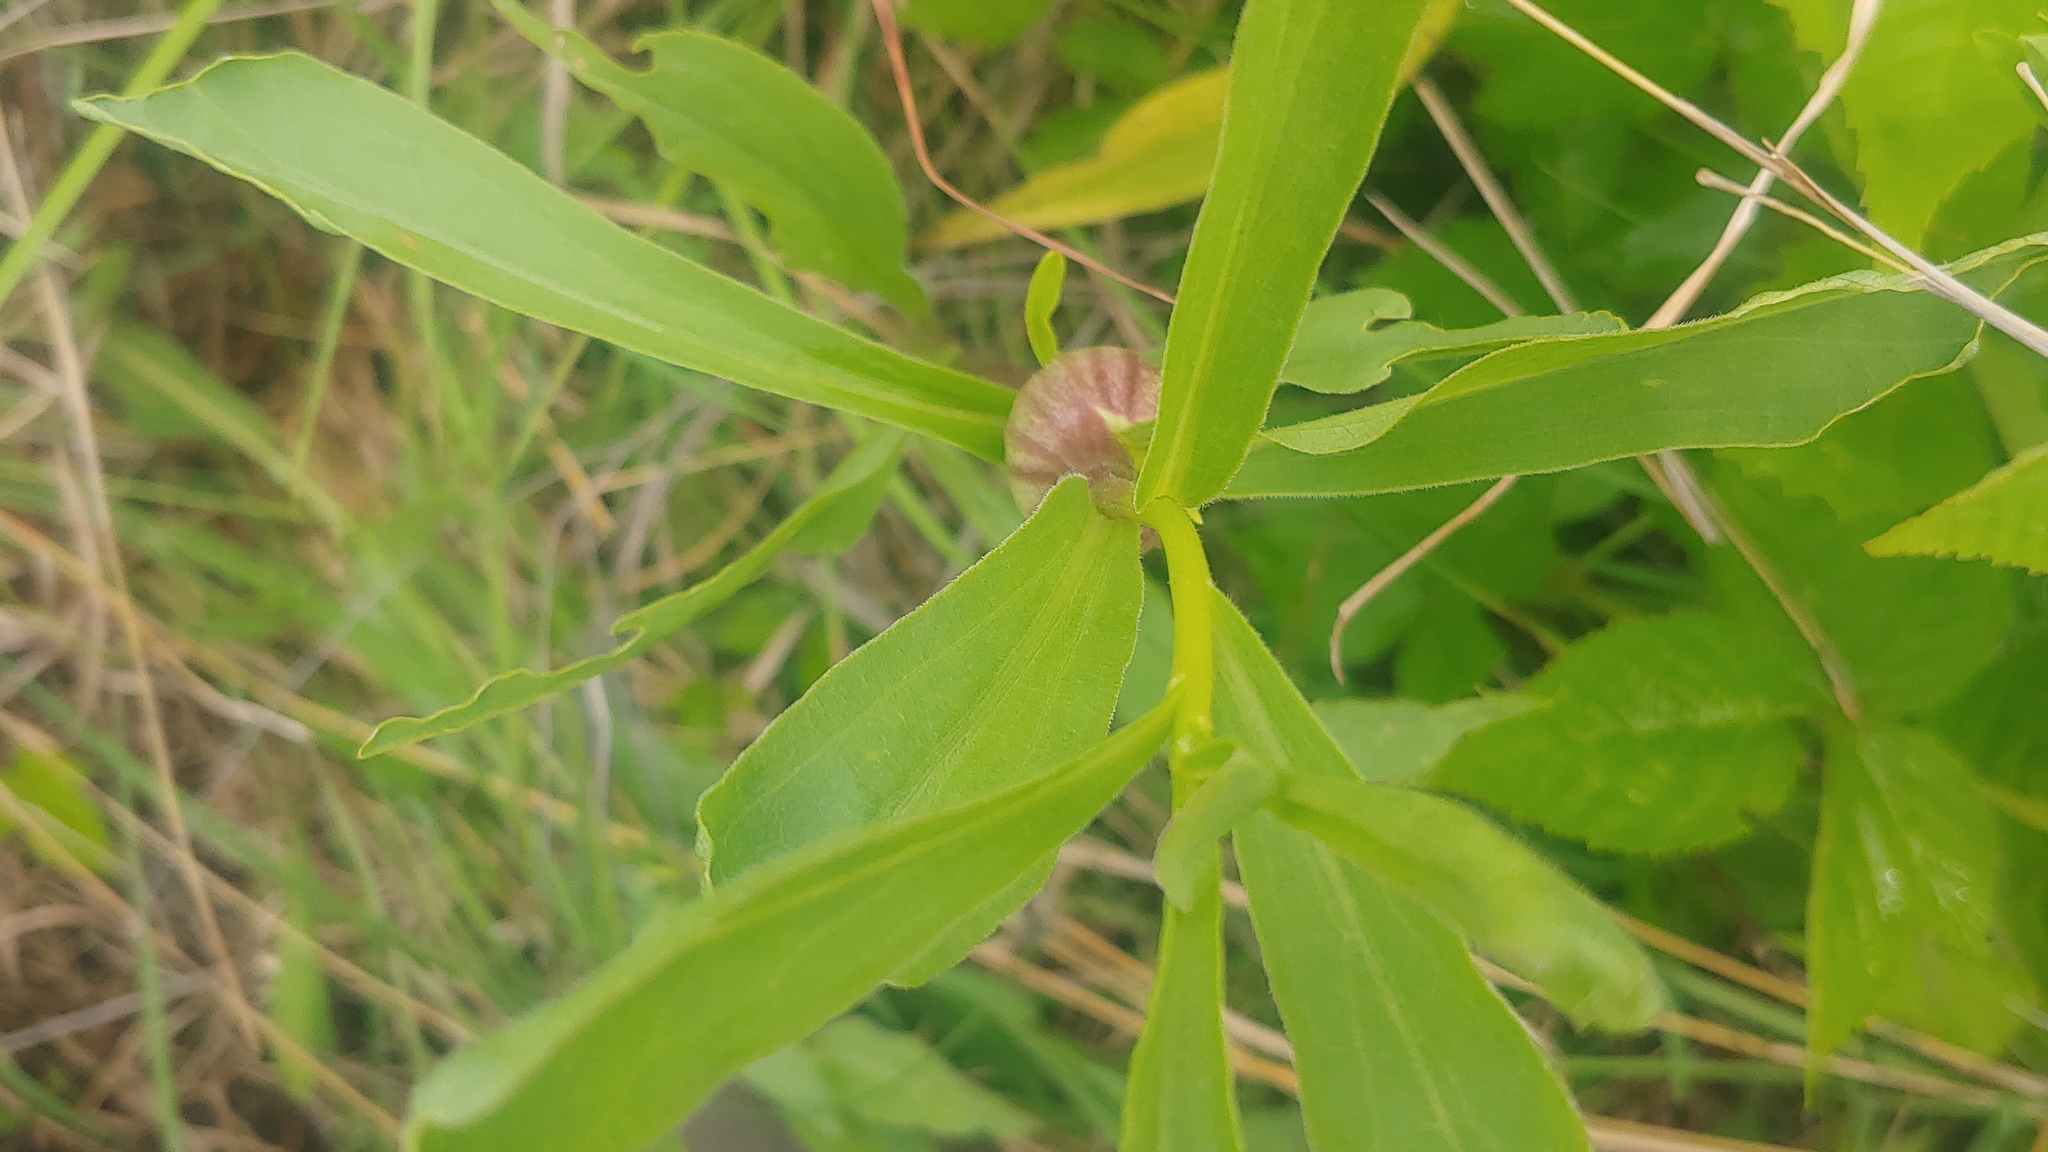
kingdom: Animalia
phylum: Arthropoda
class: Insecta
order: Diptera
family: Tephritidae
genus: Eurosta
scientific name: Eurosta solidaginis
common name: Goldenrod gall fly
